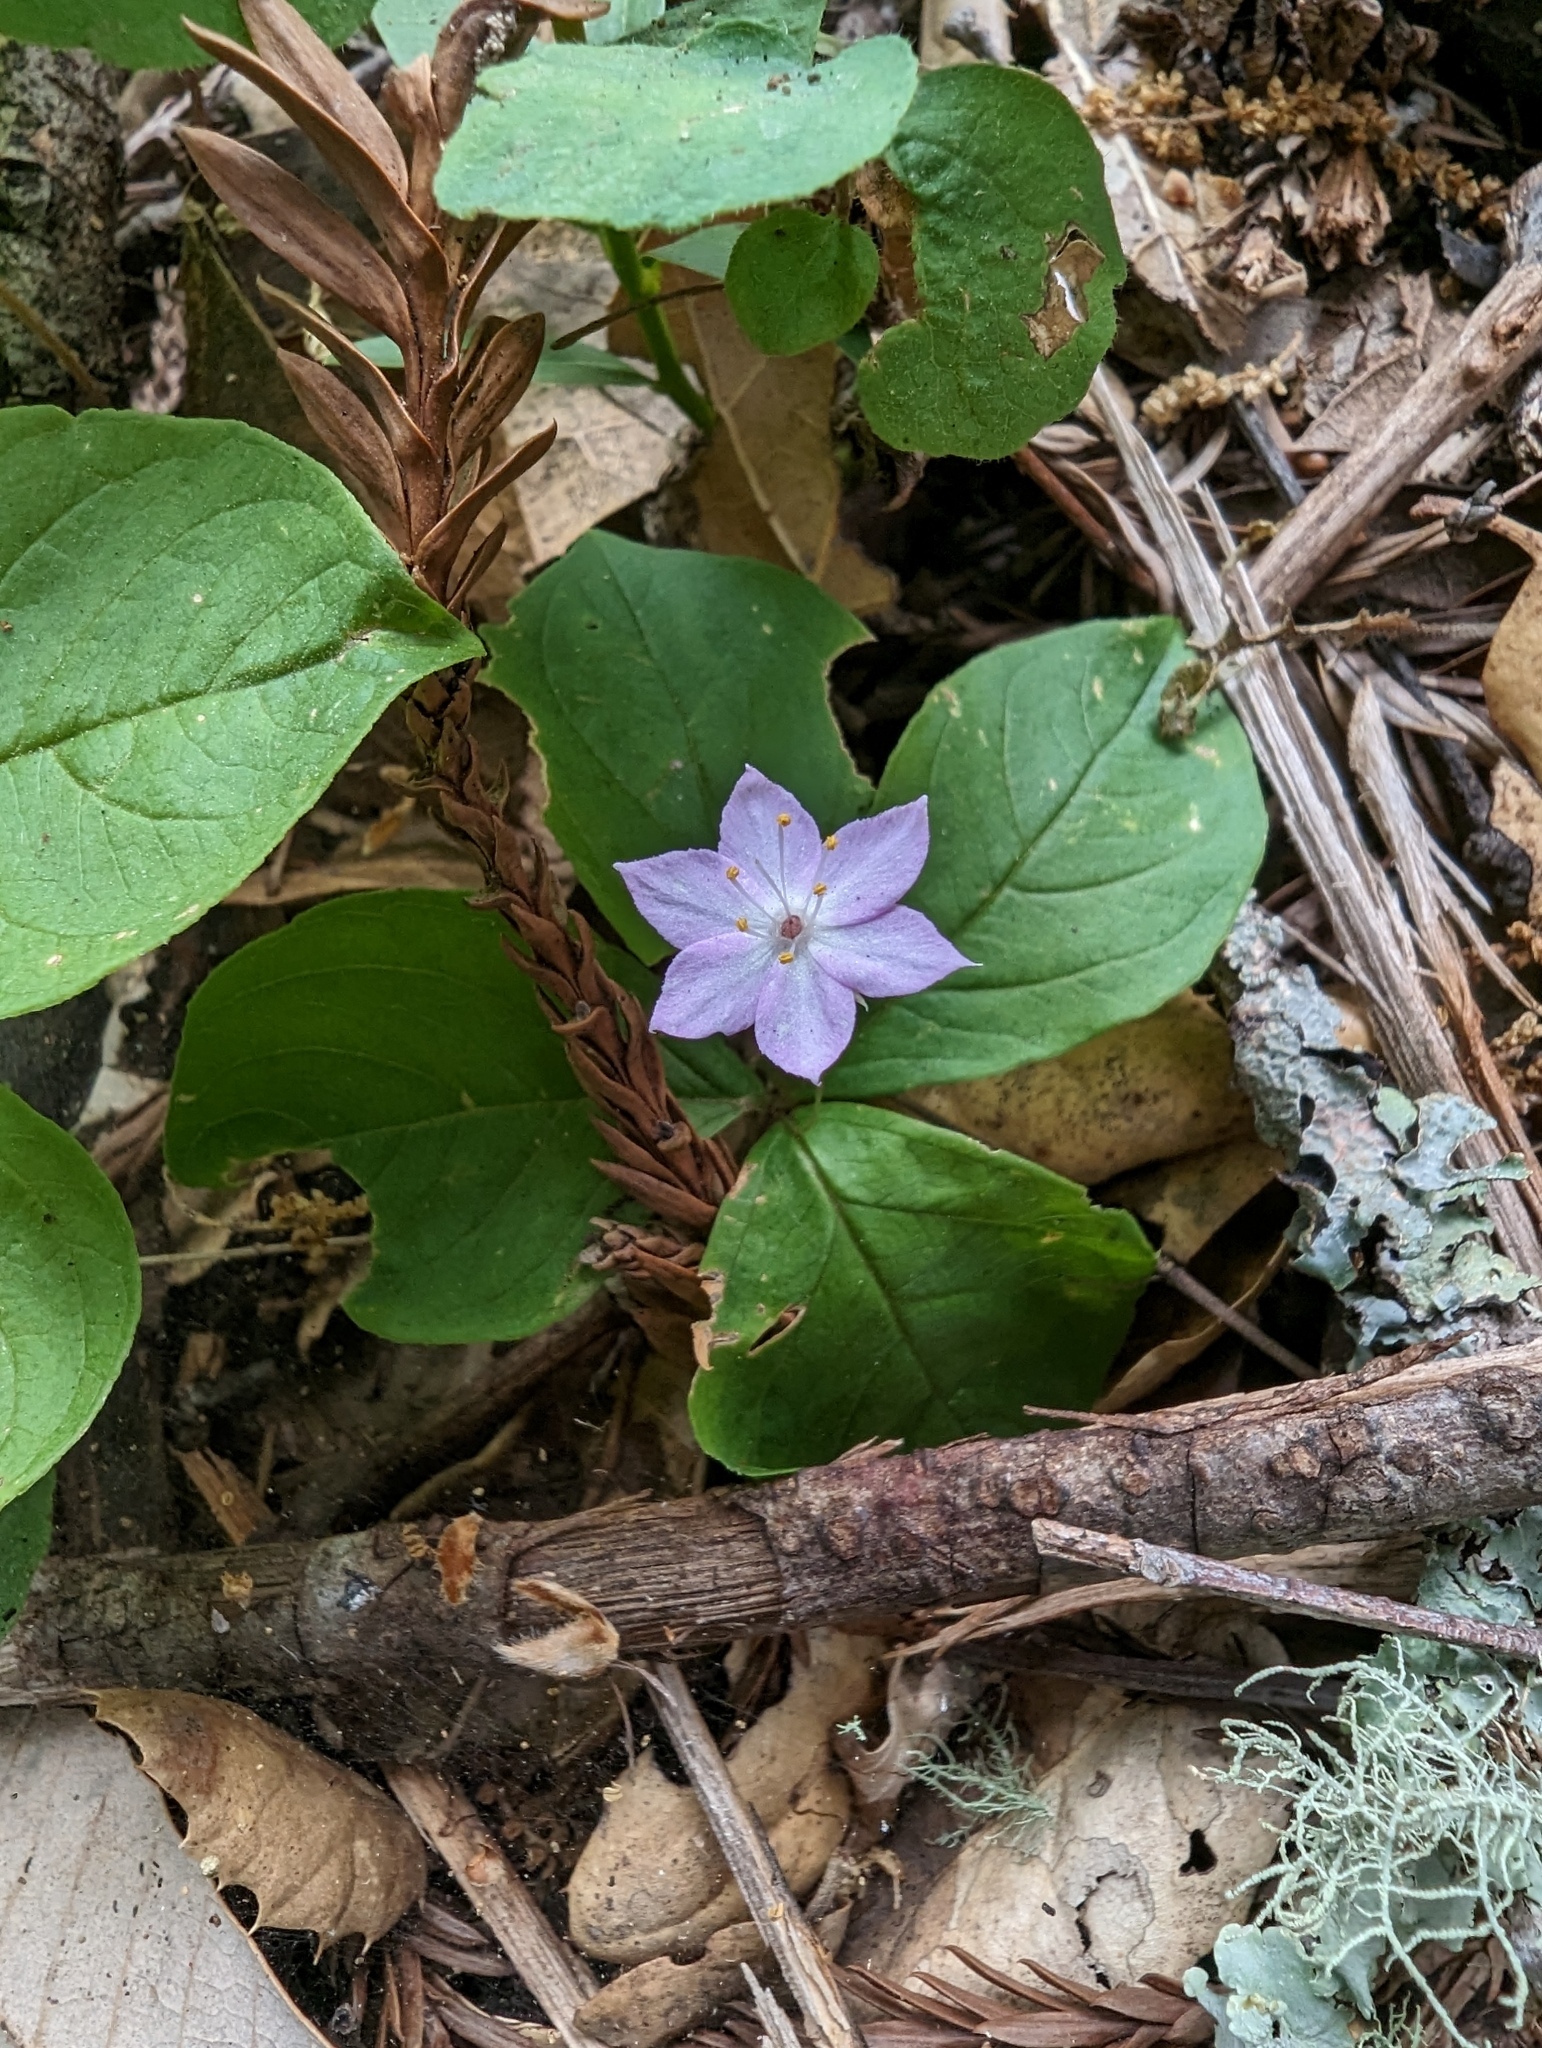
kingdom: Plantae
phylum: Tracheophyta
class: Magnoliopsida
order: Ericales
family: Primulaceae
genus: Lysimachia
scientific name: Lysimachia latifolia
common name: Pacific starflower
